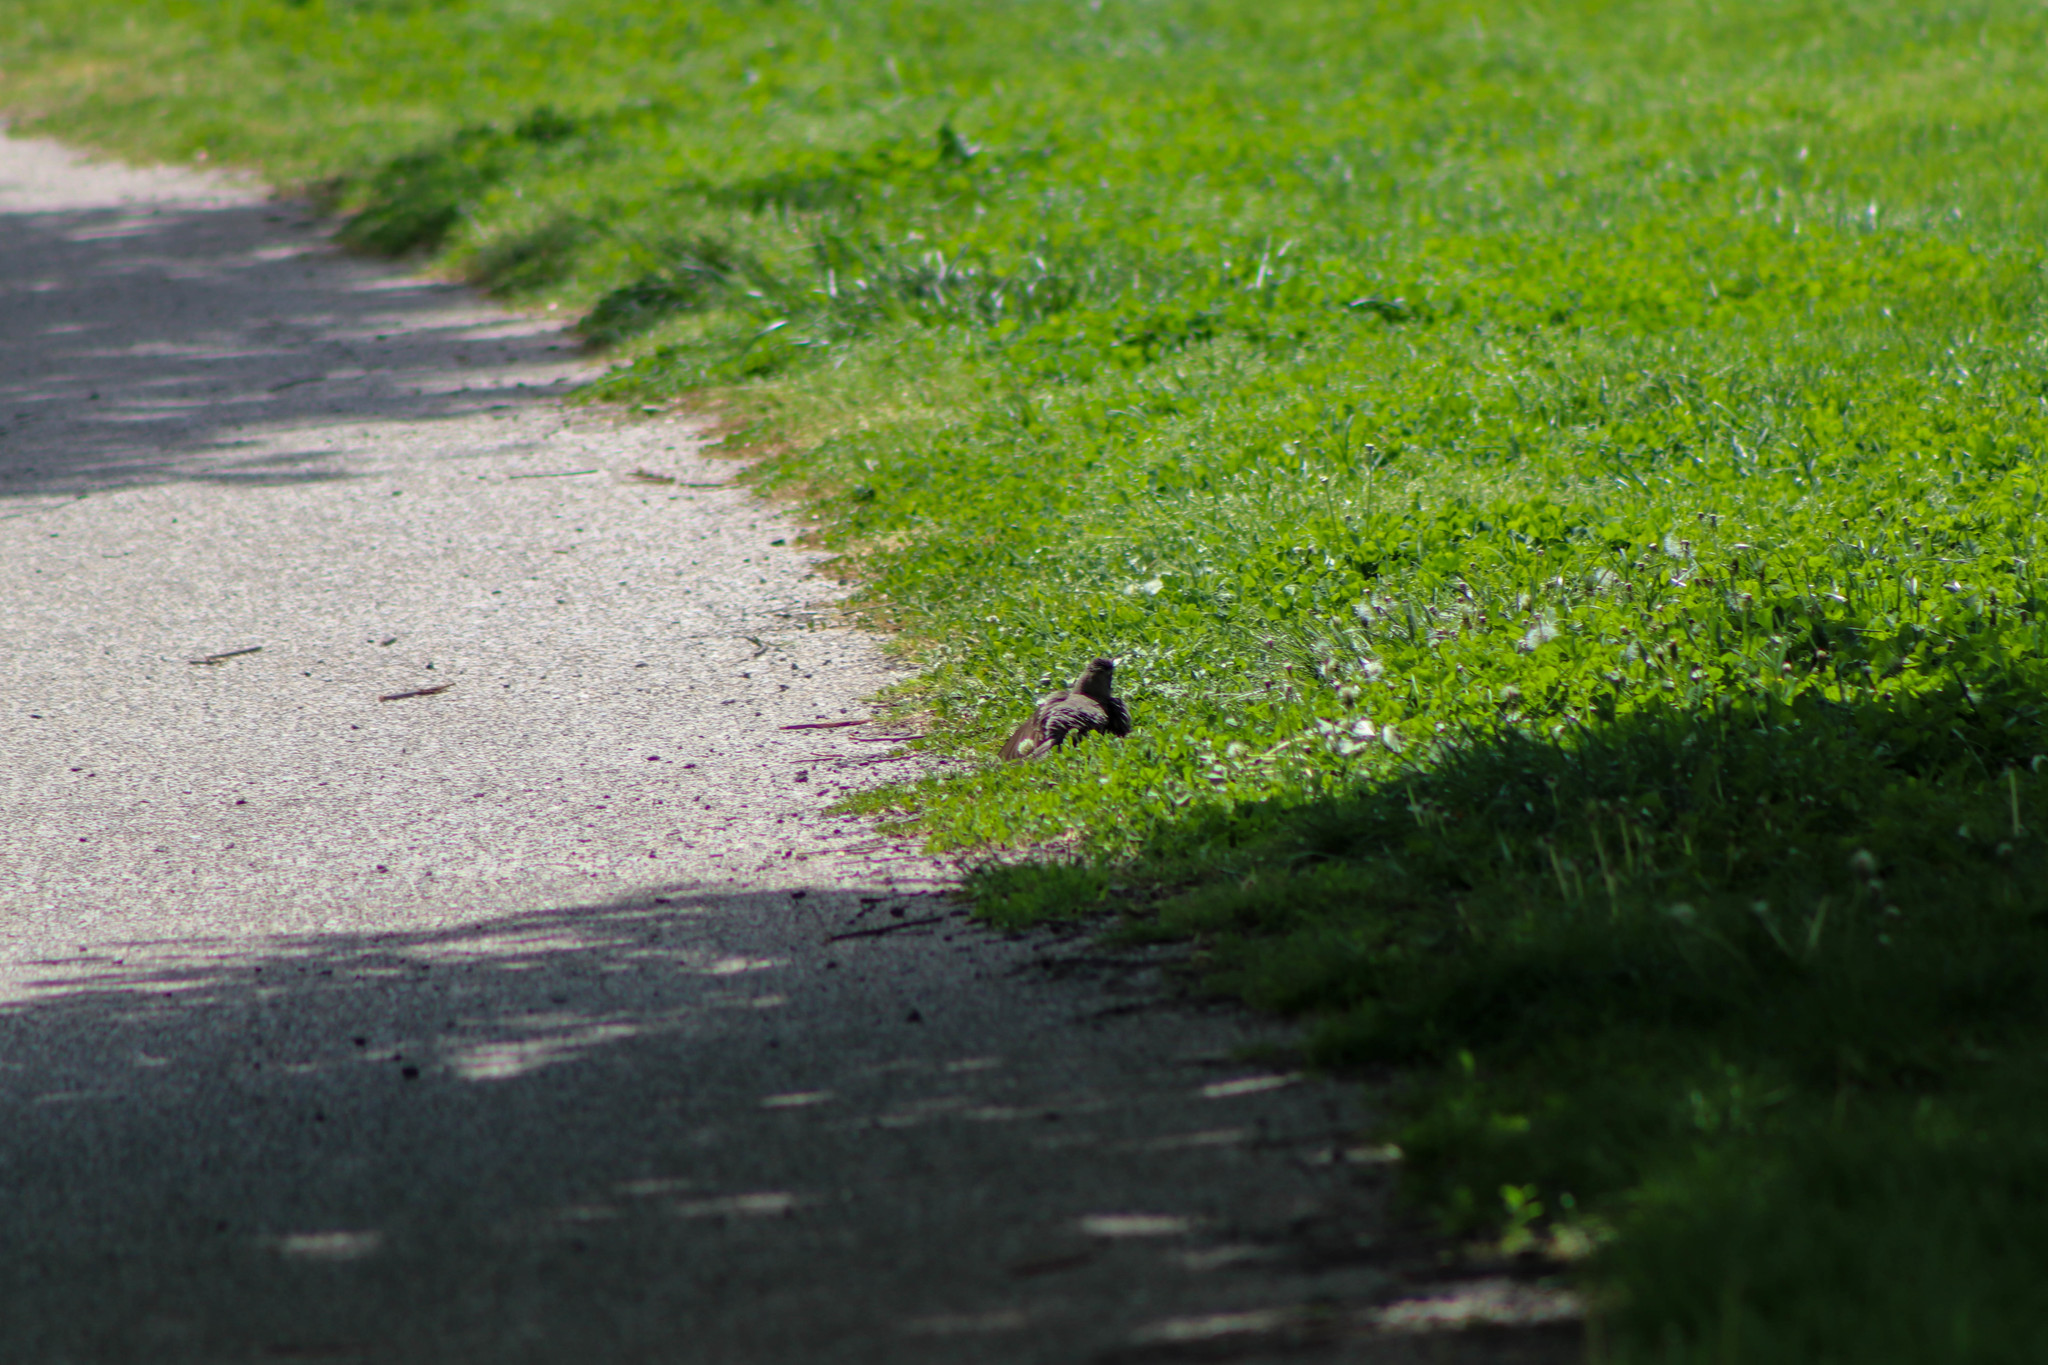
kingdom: Animalia
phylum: Chordata
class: Aves
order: Passeriformes
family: Turdidae
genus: Turdus
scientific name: Turdus migratorius
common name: American robin
